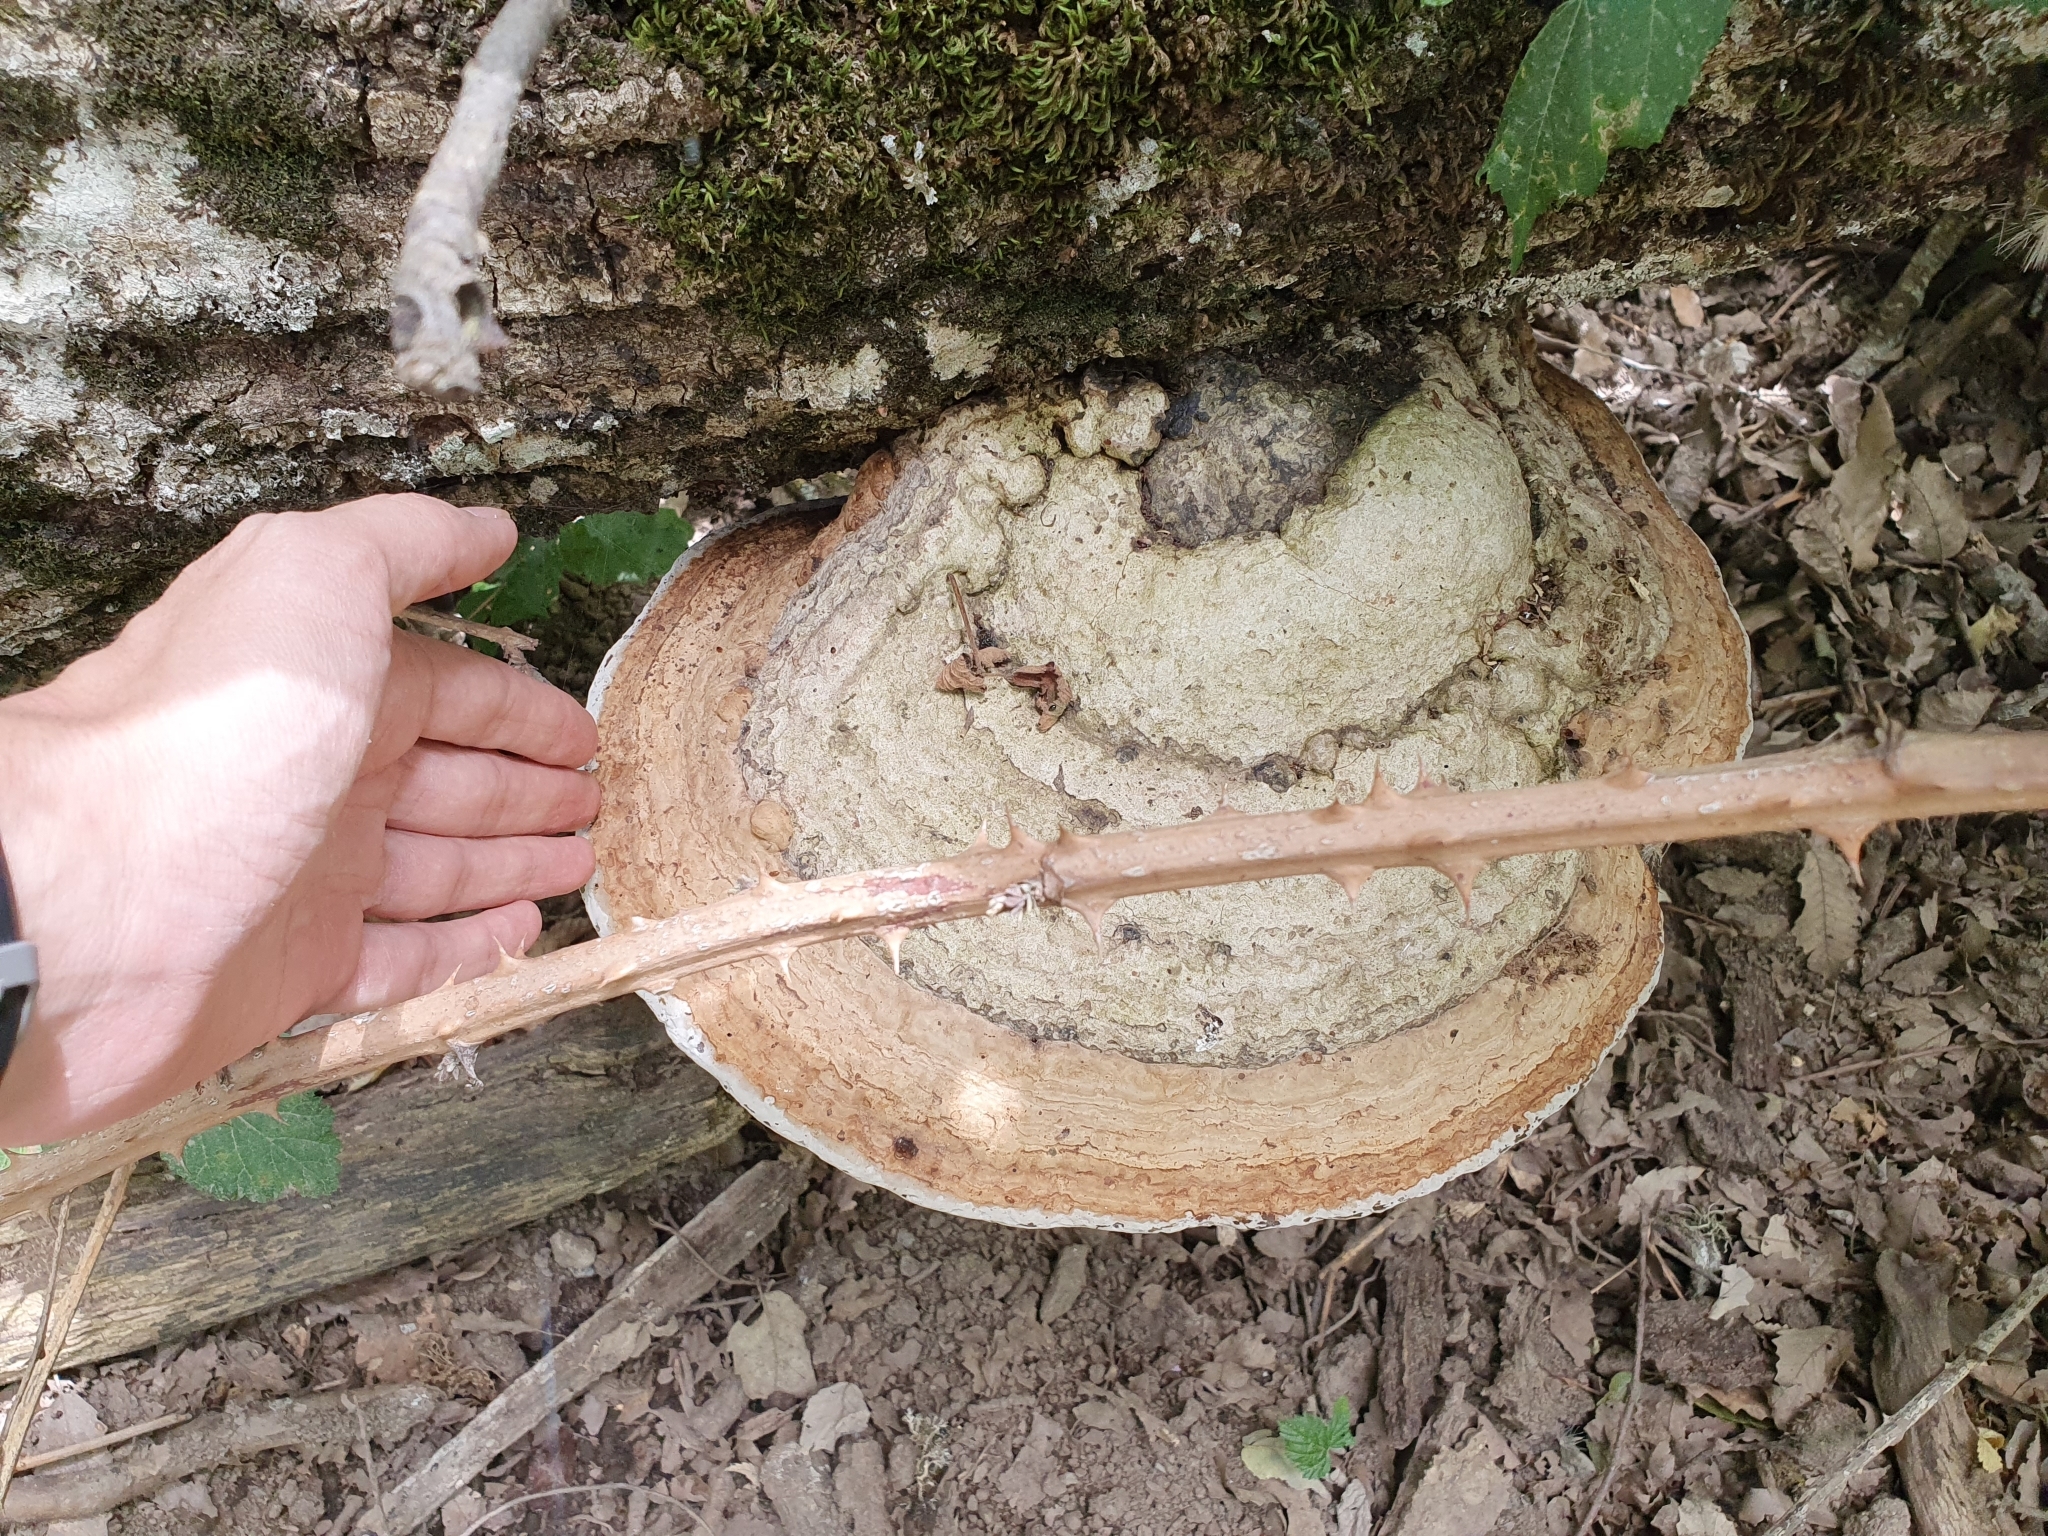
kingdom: Fungi
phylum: Basidiomycota
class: Agaricomycetes
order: Polyporales
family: Polyporaceae
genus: Fomes
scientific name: Fomes fomentarius
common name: Hoof fungus
